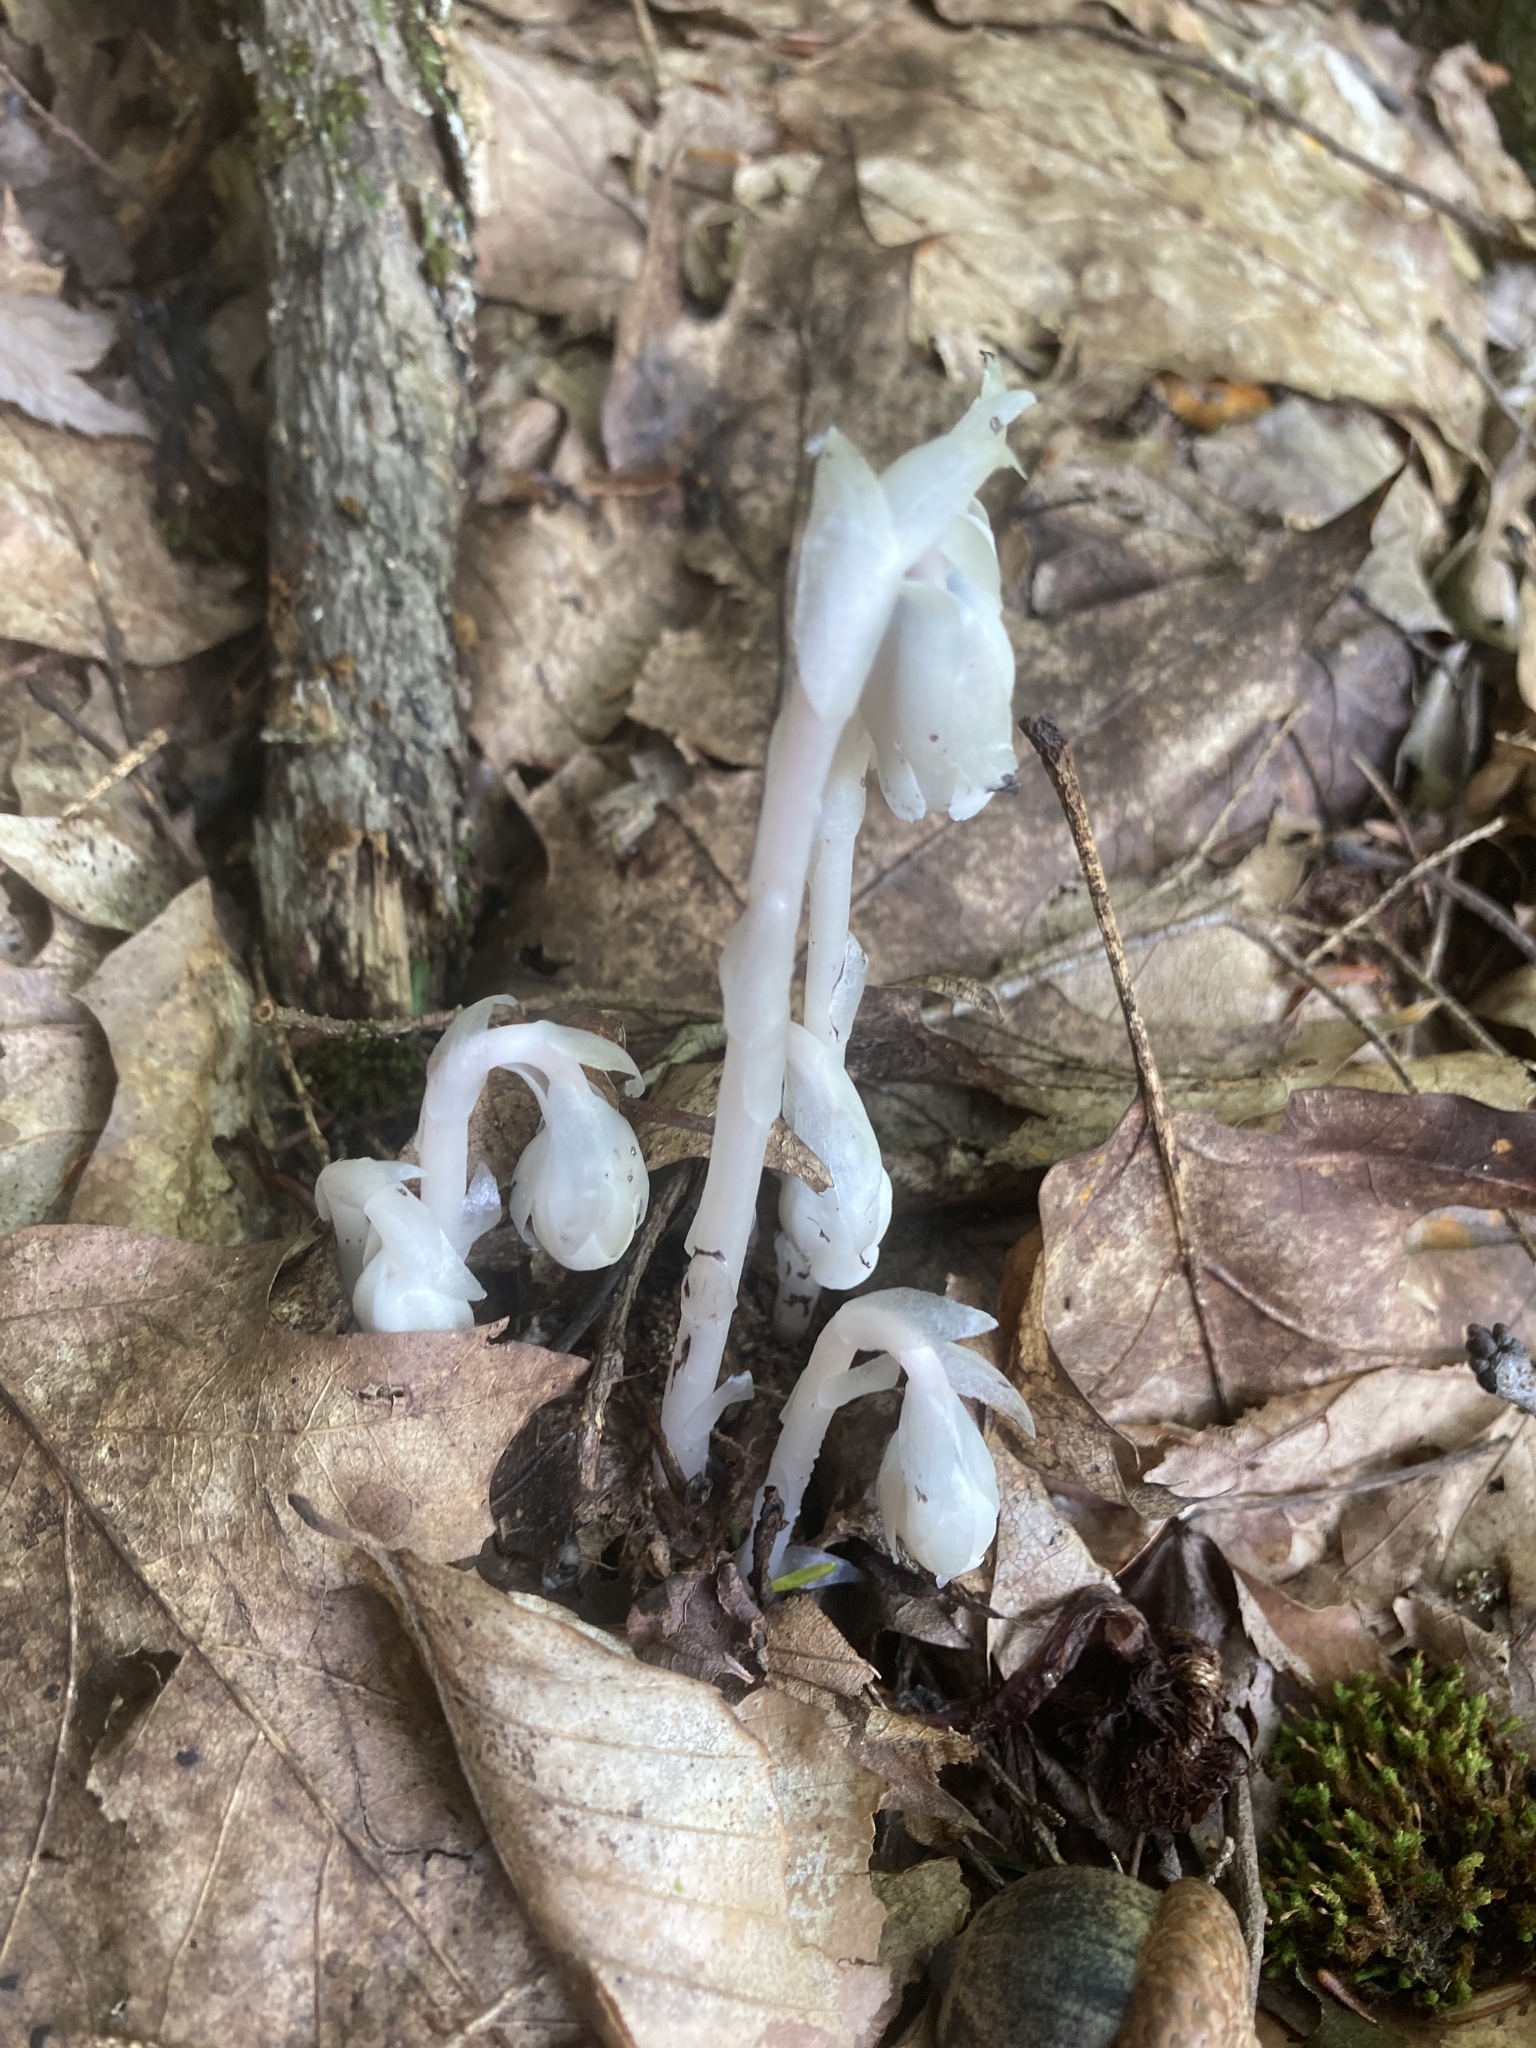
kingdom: Plantae
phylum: Tracheophyta
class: Magnoliopsida
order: Ericales
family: Ericaceae
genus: Monotropa
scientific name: Monotropa uniflora
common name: Convulsion root
